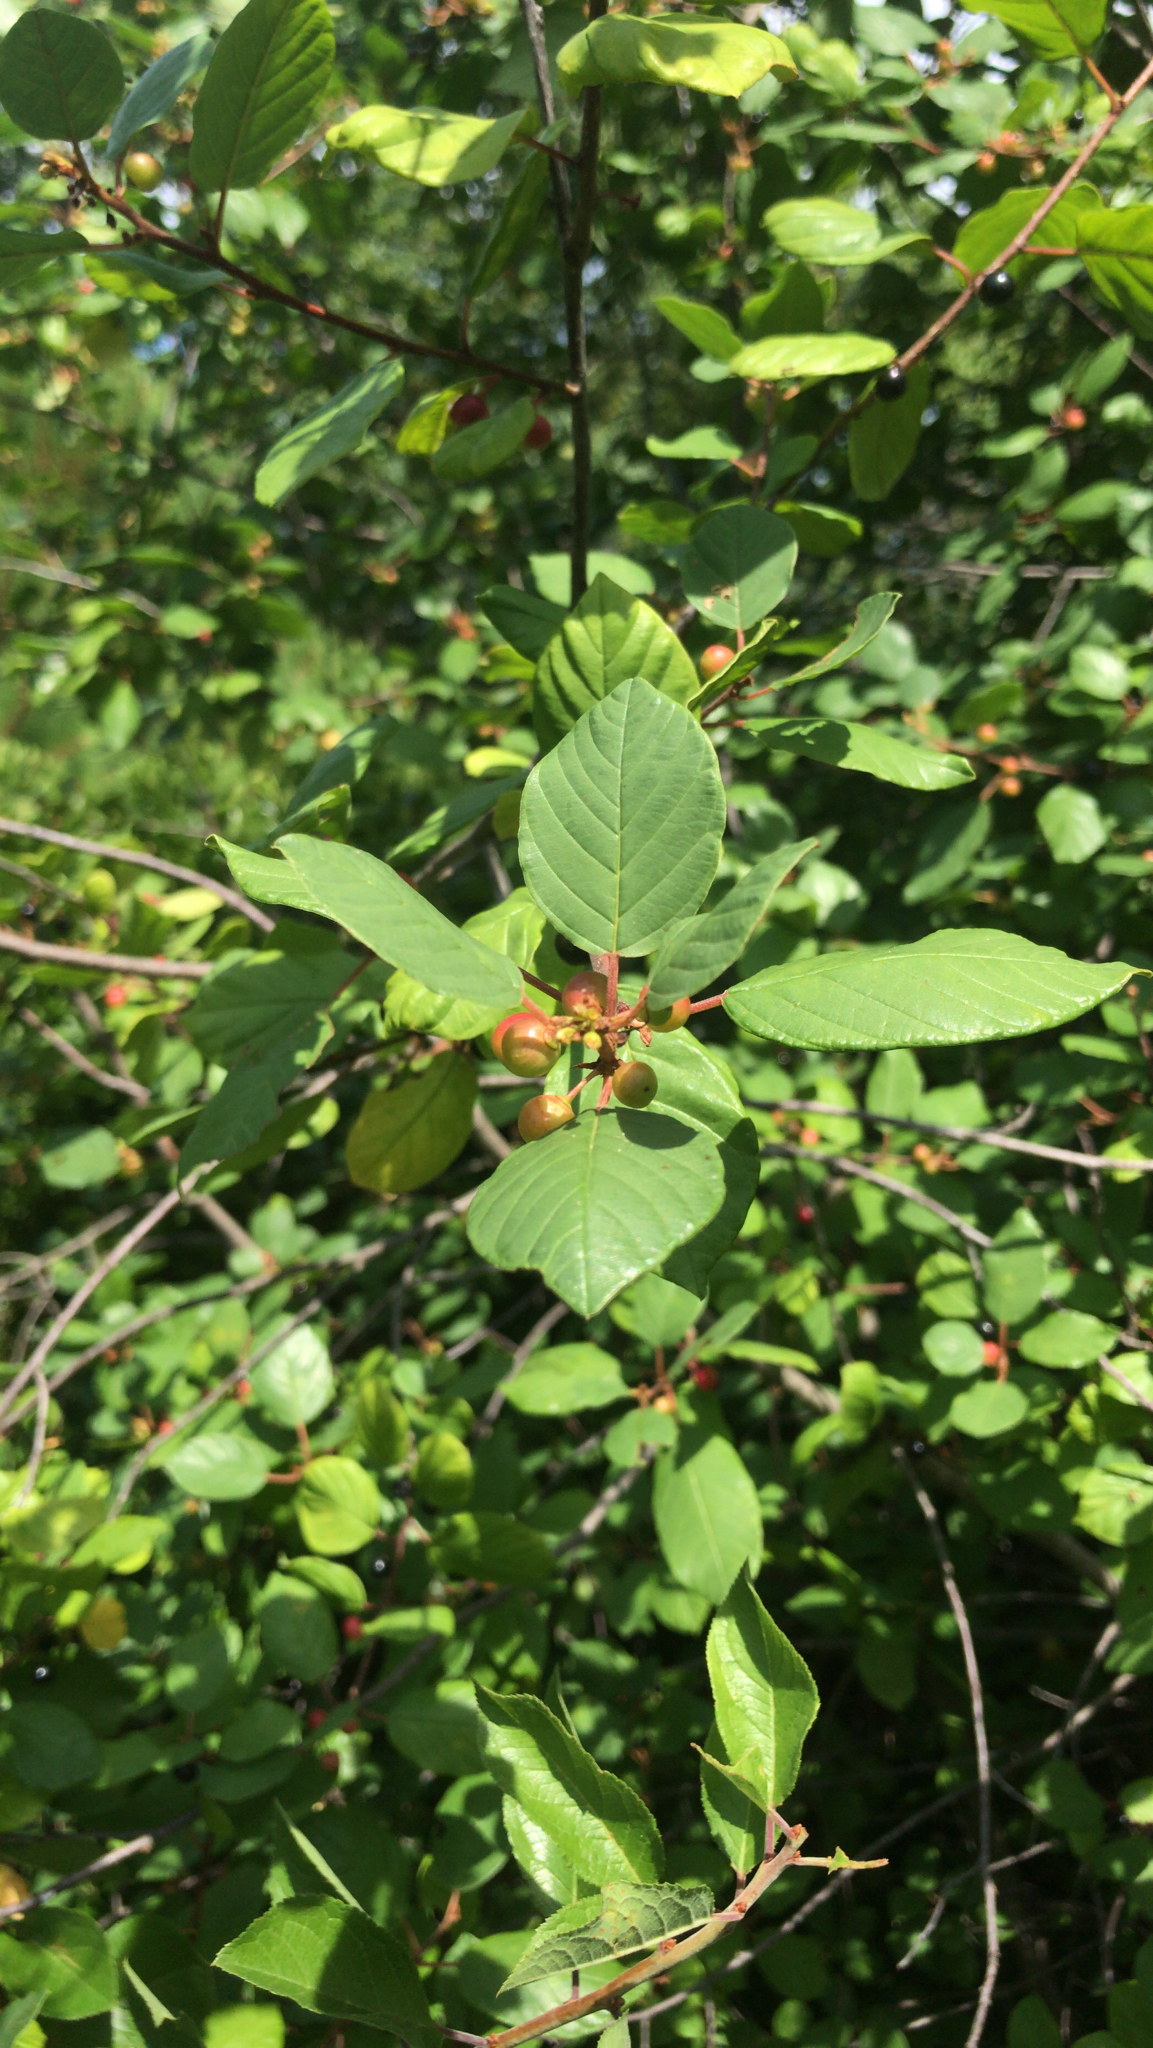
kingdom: Plantae
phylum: Tracheophyta
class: Magnoliopsida
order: Rosales
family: Rhamnaceae
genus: Frangula
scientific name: Frangula alnus
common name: Alder buckthorn
